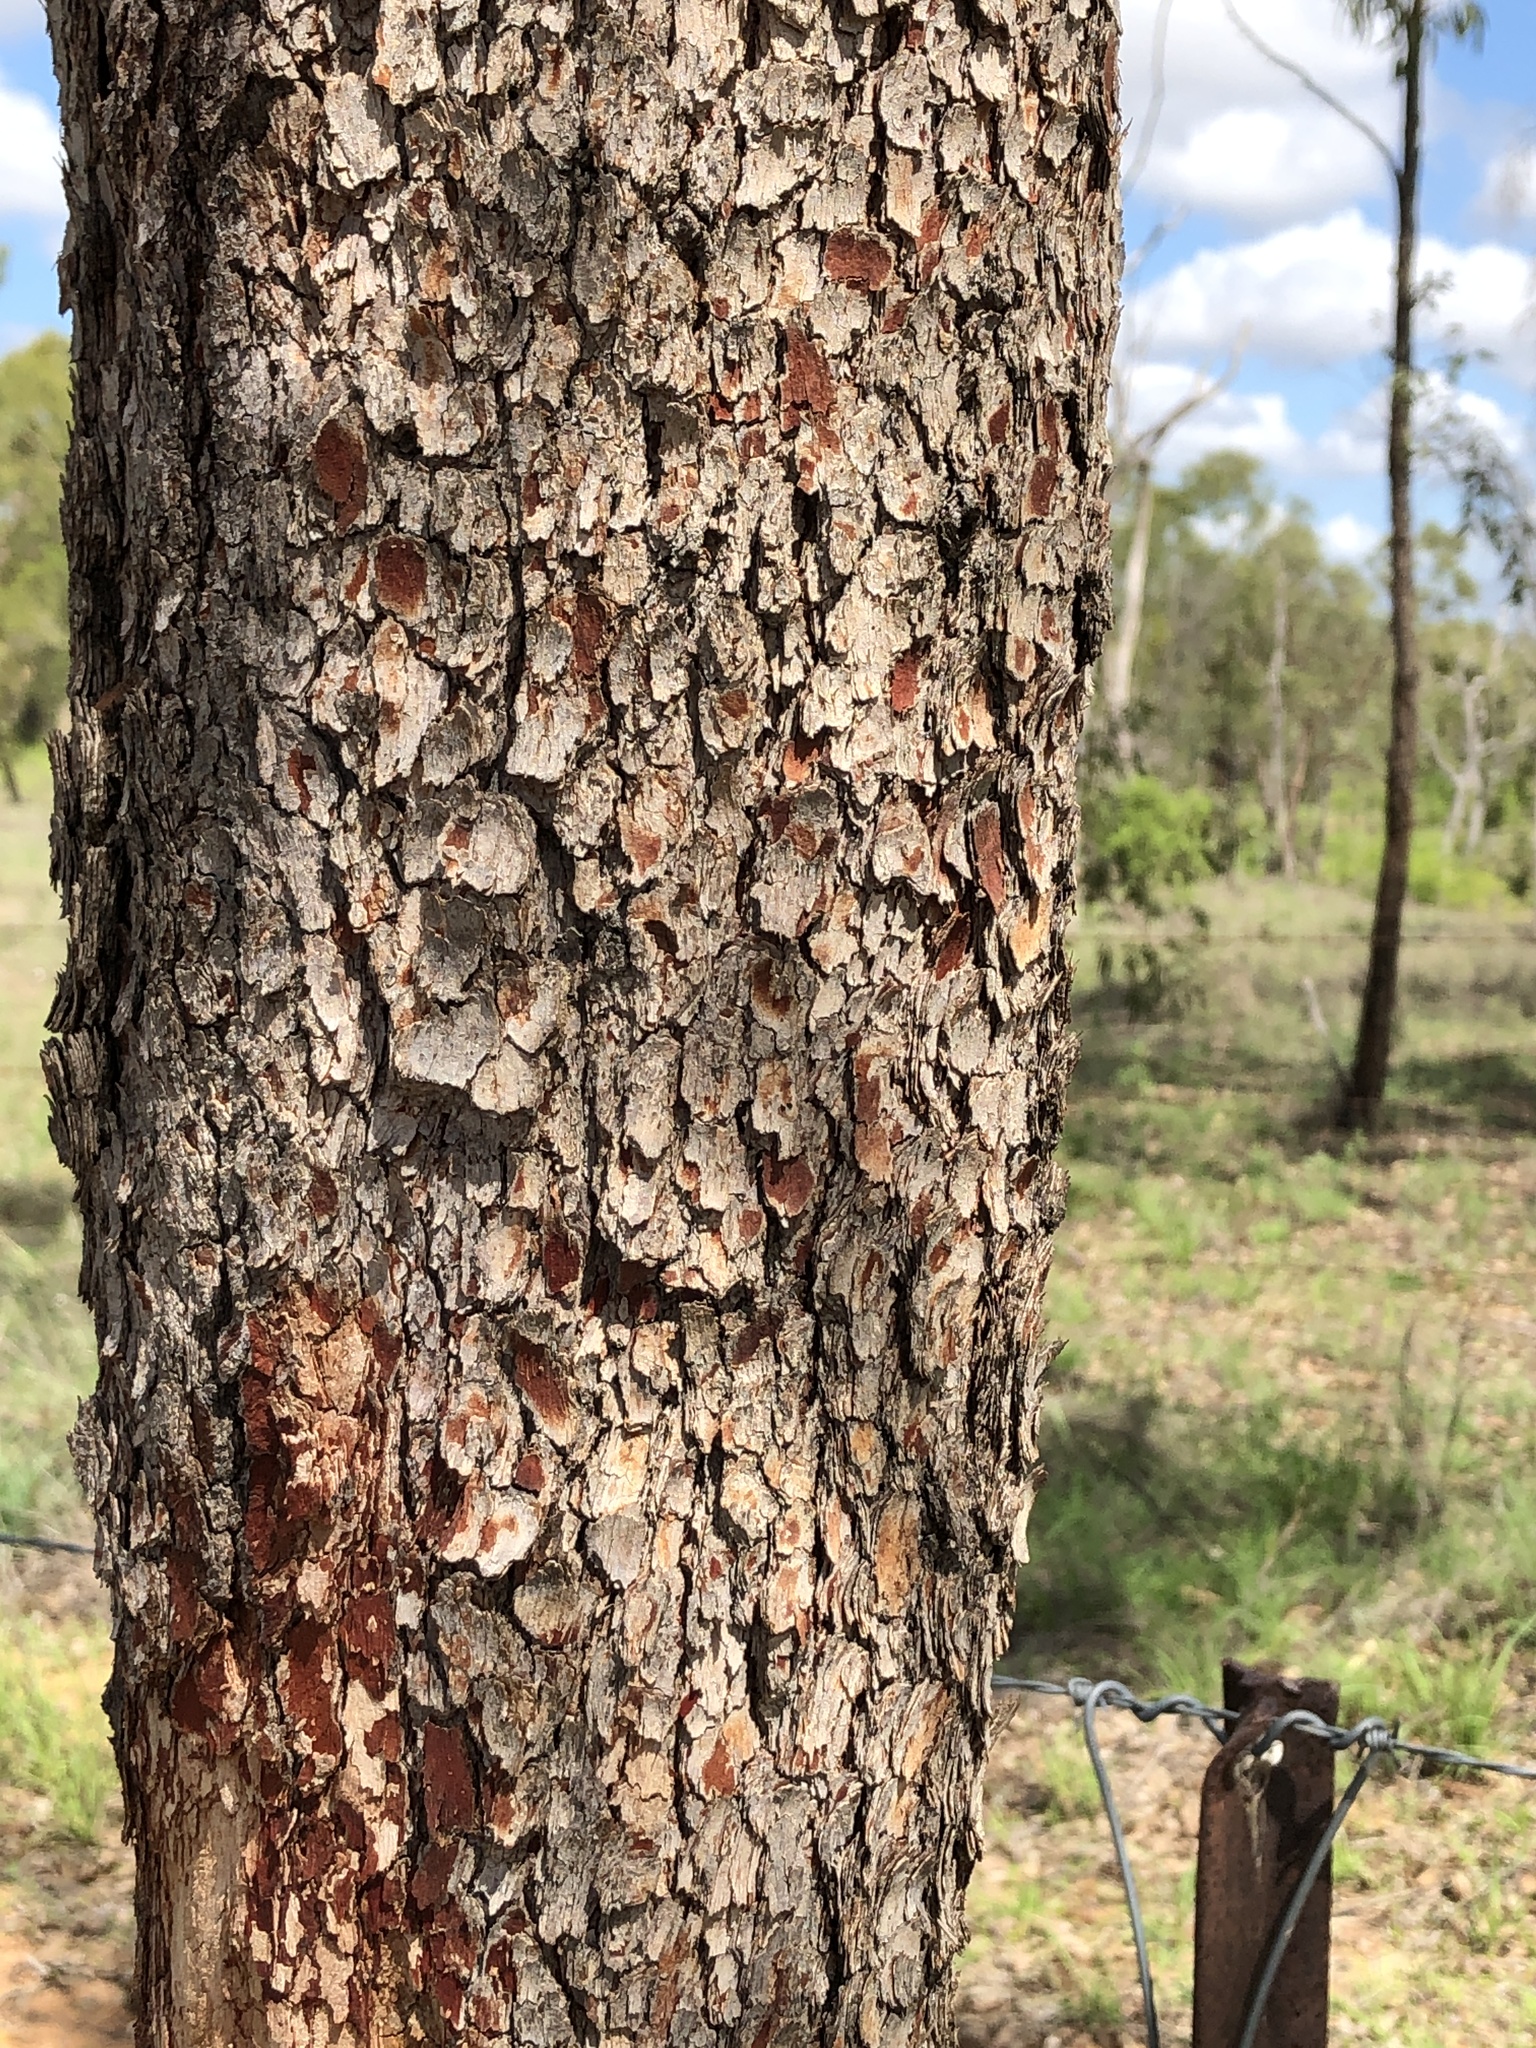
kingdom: Plantae
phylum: Tracheophyta
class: Magnoliopsida
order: Myrtales
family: Myrtaceae
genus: Corymbia
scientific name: Corymbia erythrophloia
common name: Red bloodwood
